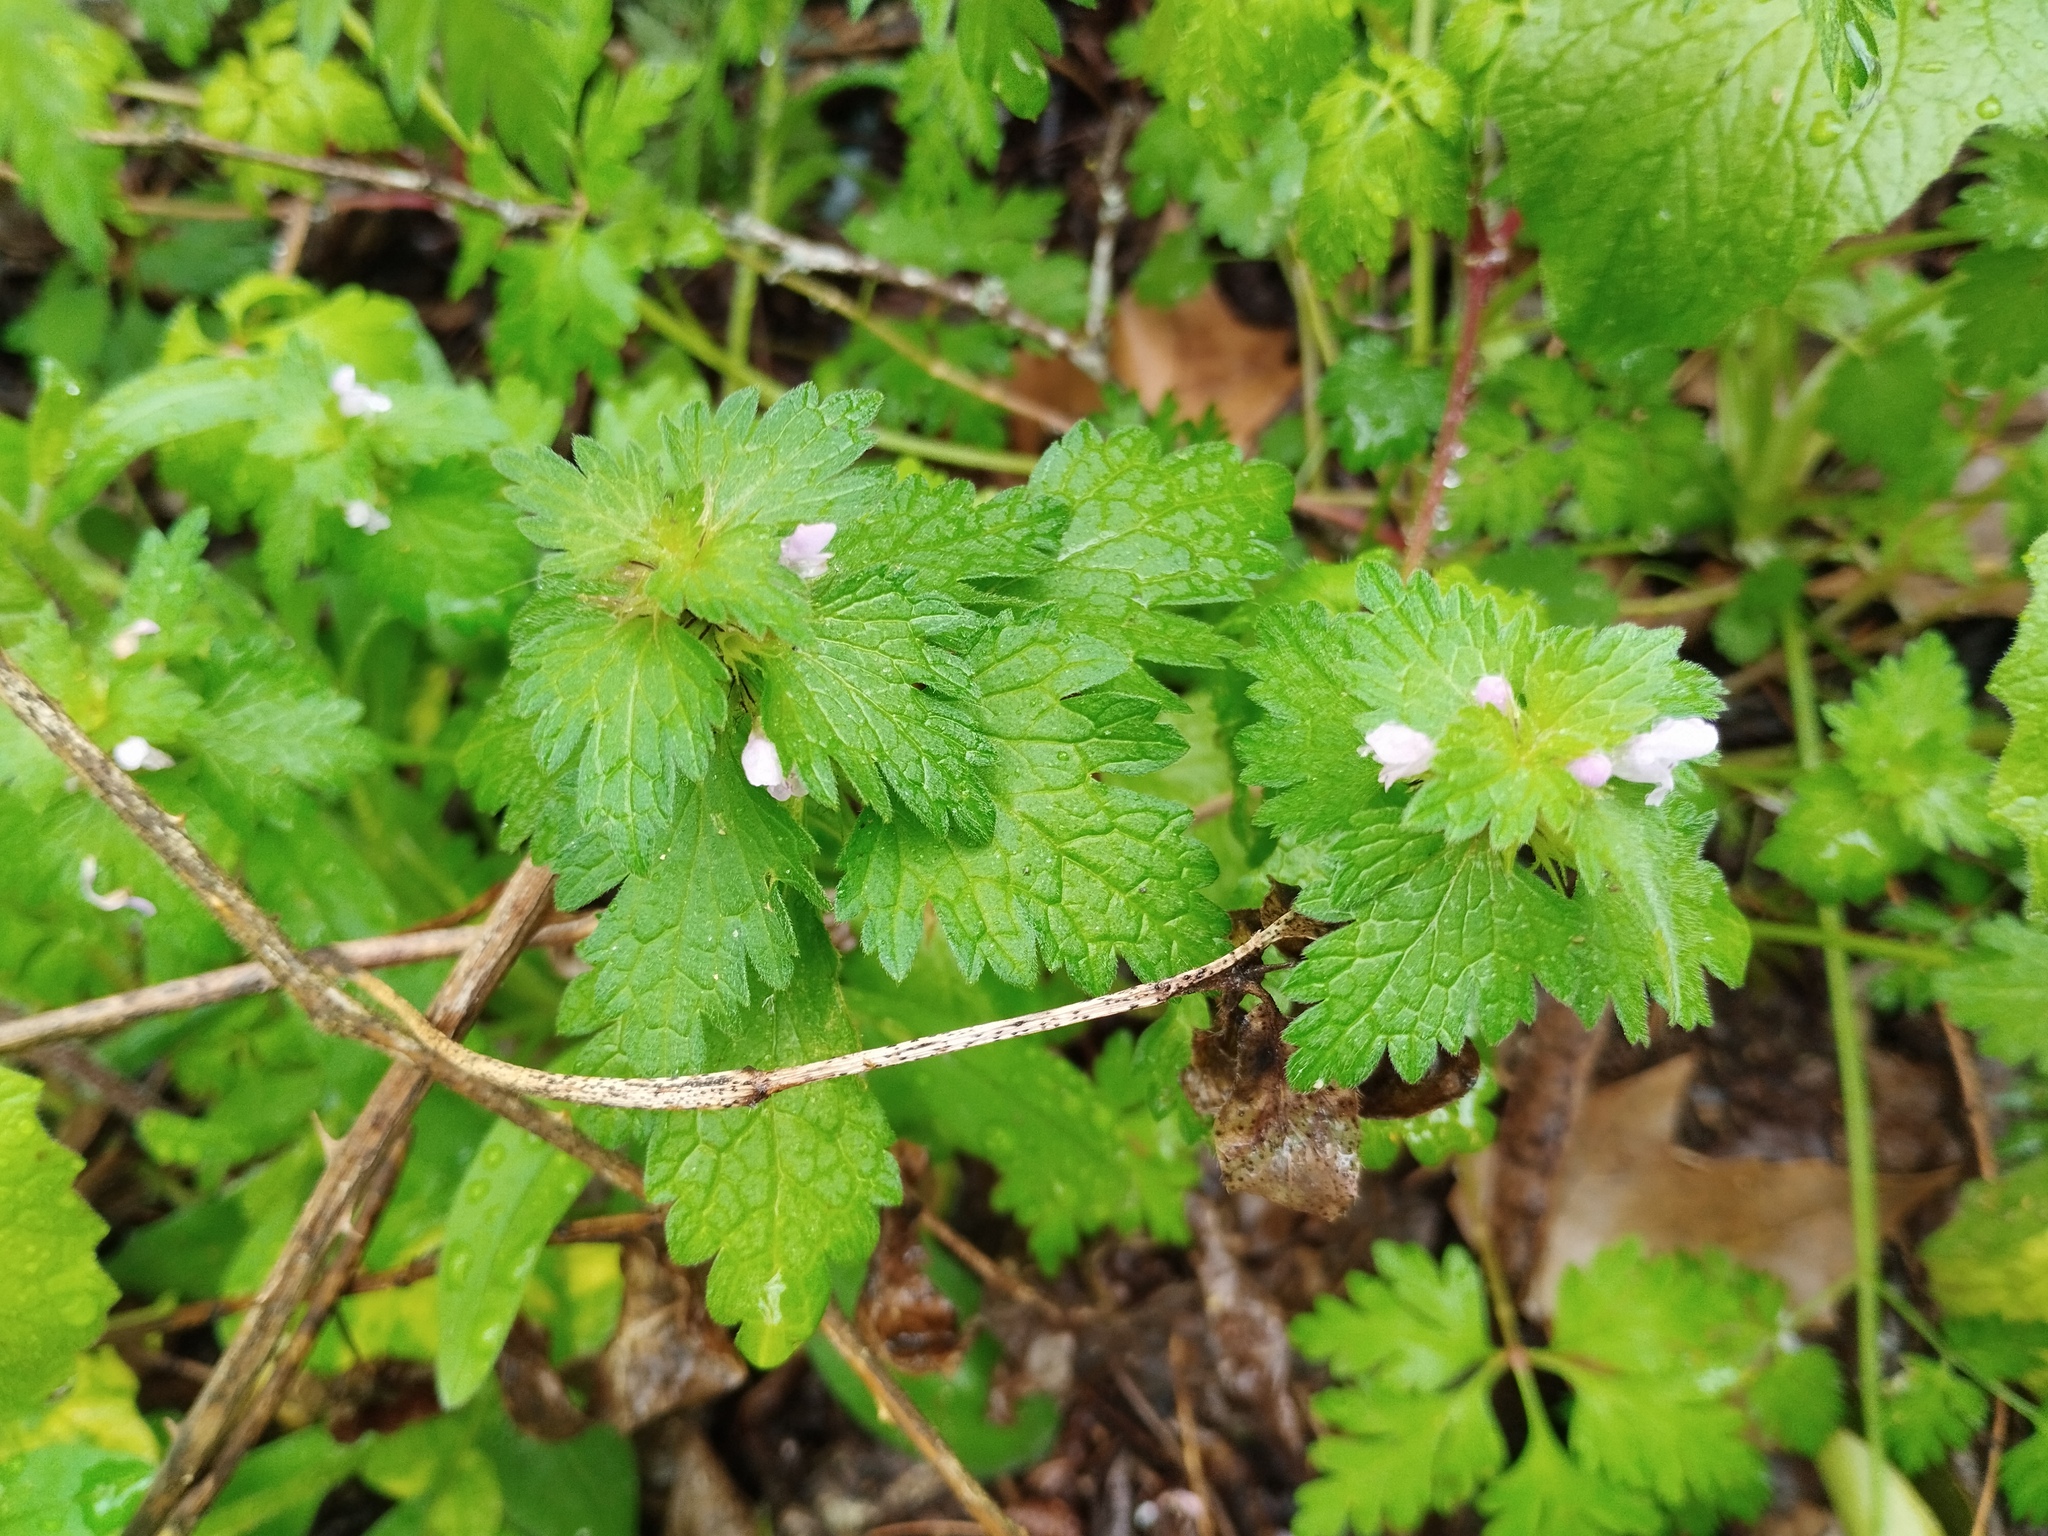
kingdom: Plantae
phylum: Tracheophyta
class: Magnoliopsida
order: Lamiales
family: Lamiaceae
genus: Lamium
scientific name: Lamium hybridum
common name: Cut-leaved dead-nettle
